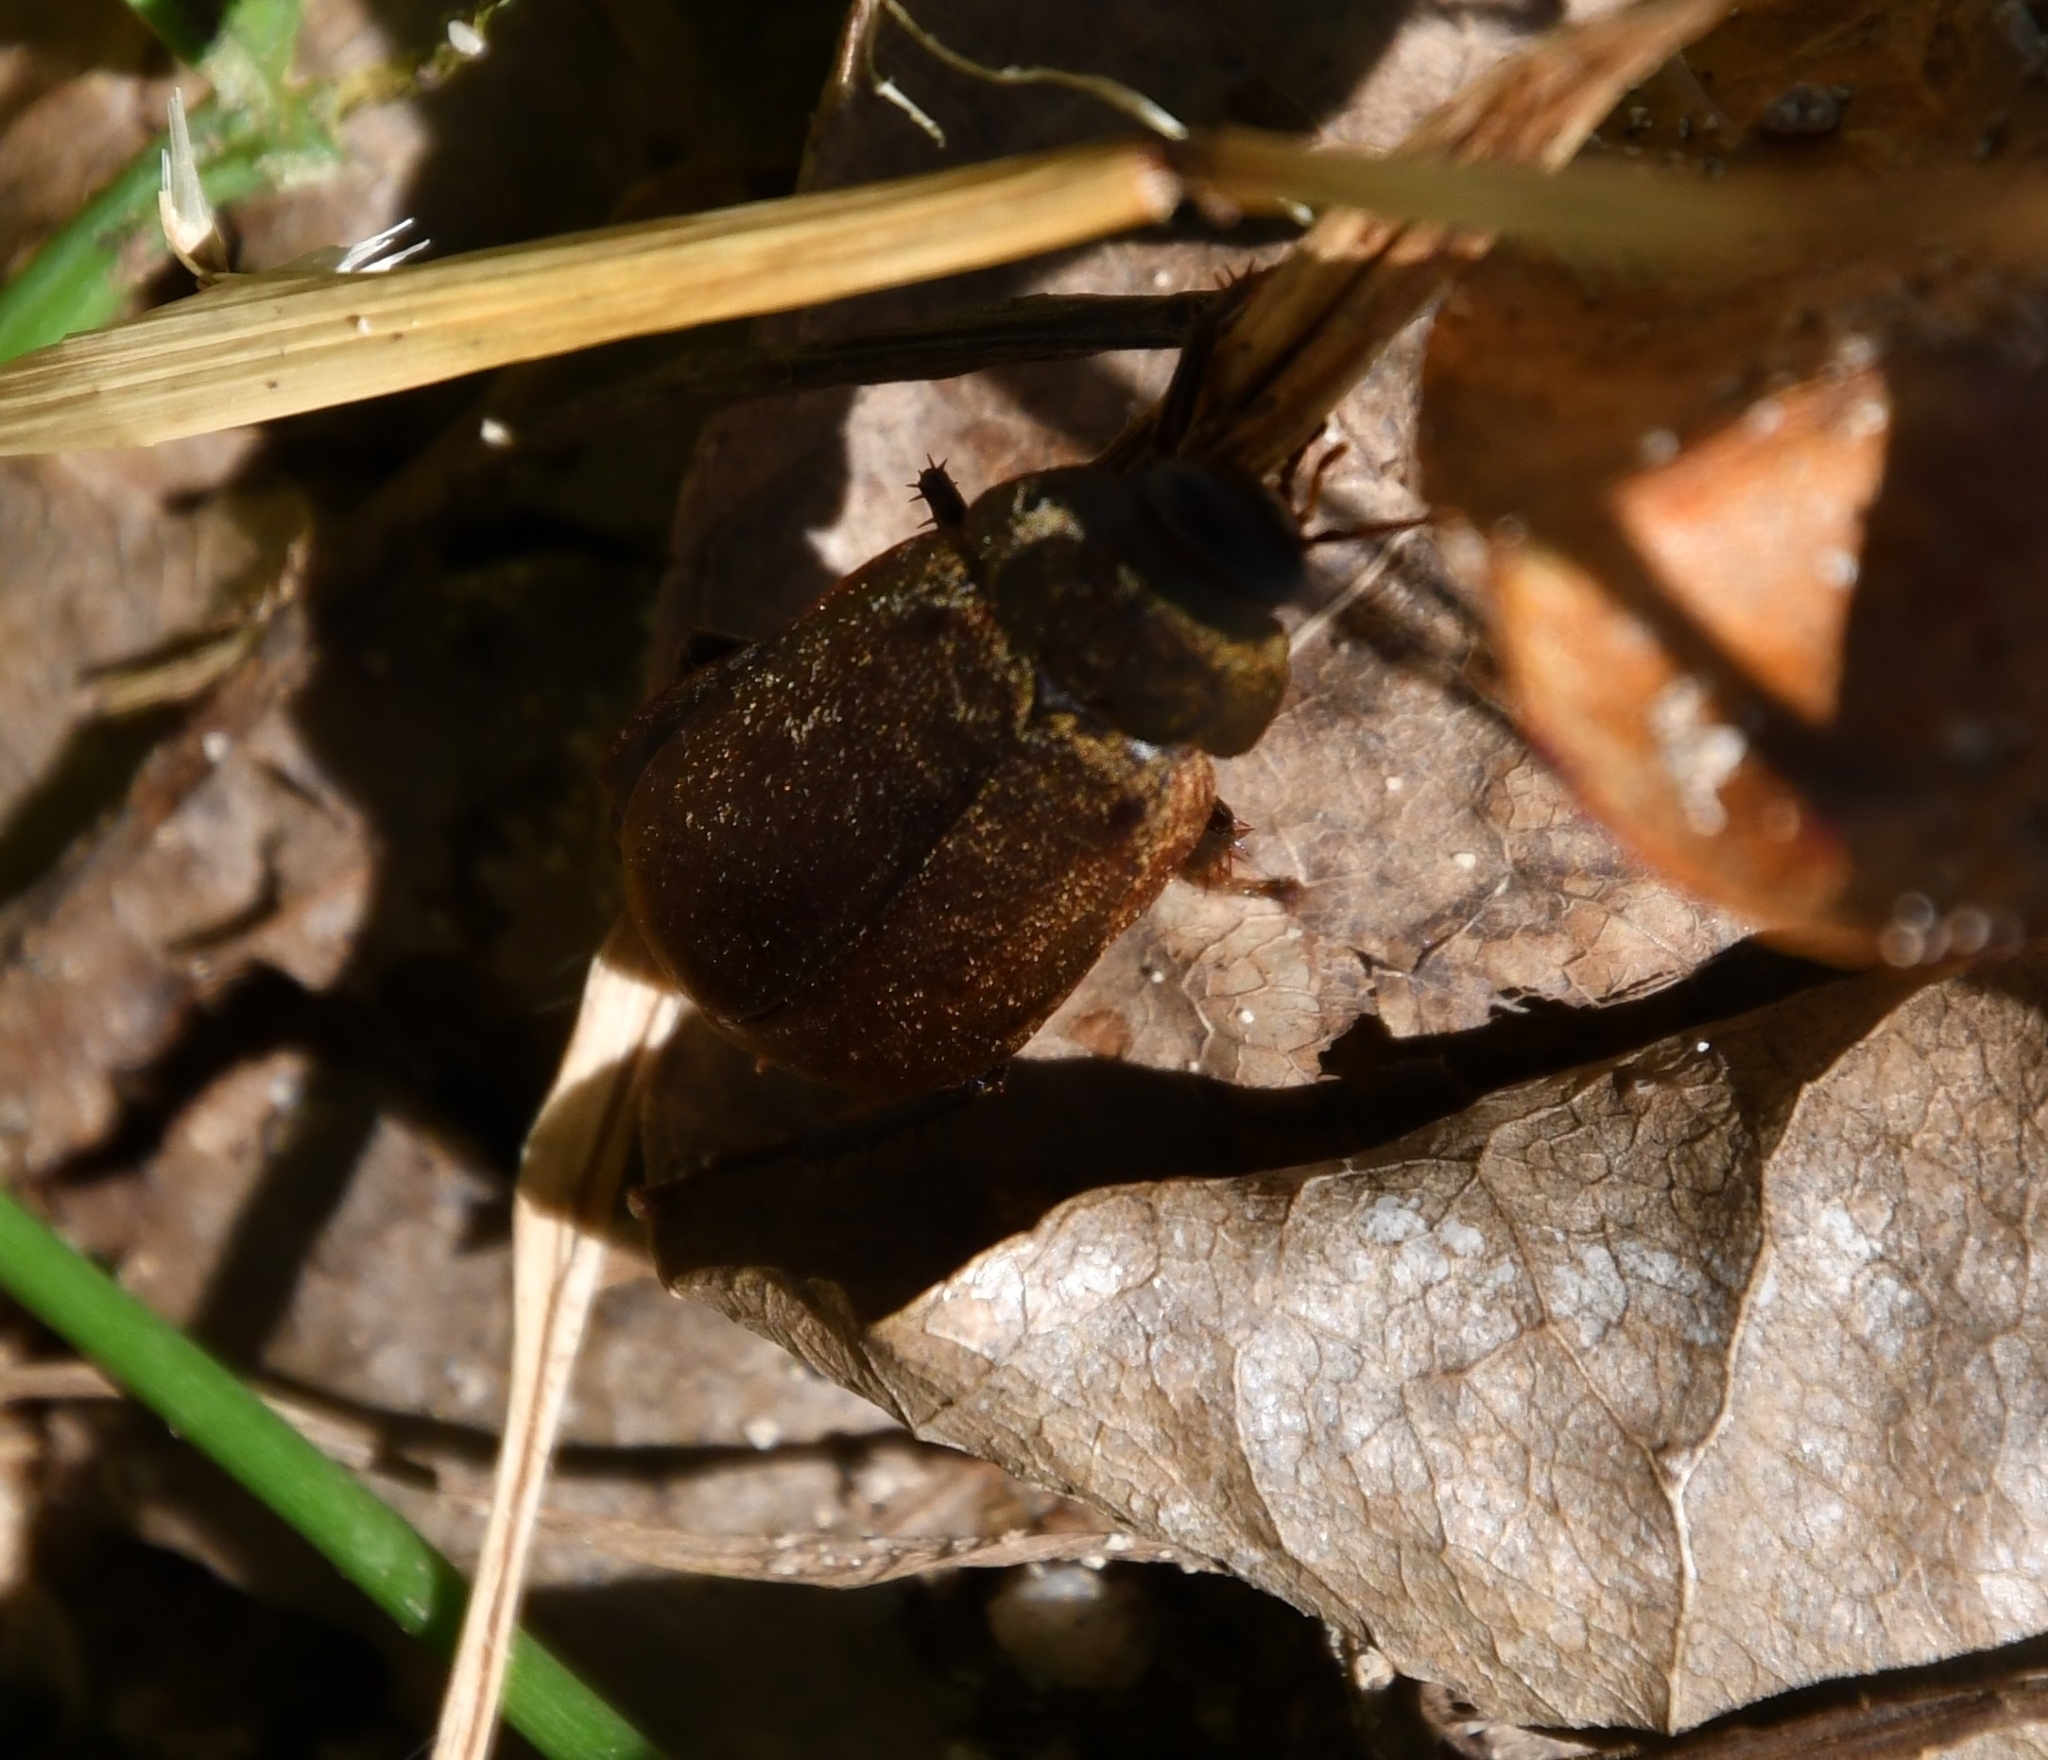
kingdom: Animalia
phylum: Arthropoda
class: Insecta
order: Blattodea
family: Blaberidae
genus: Diploptera
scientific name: Diploptera punctata
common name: Pacific beetle cockroach
